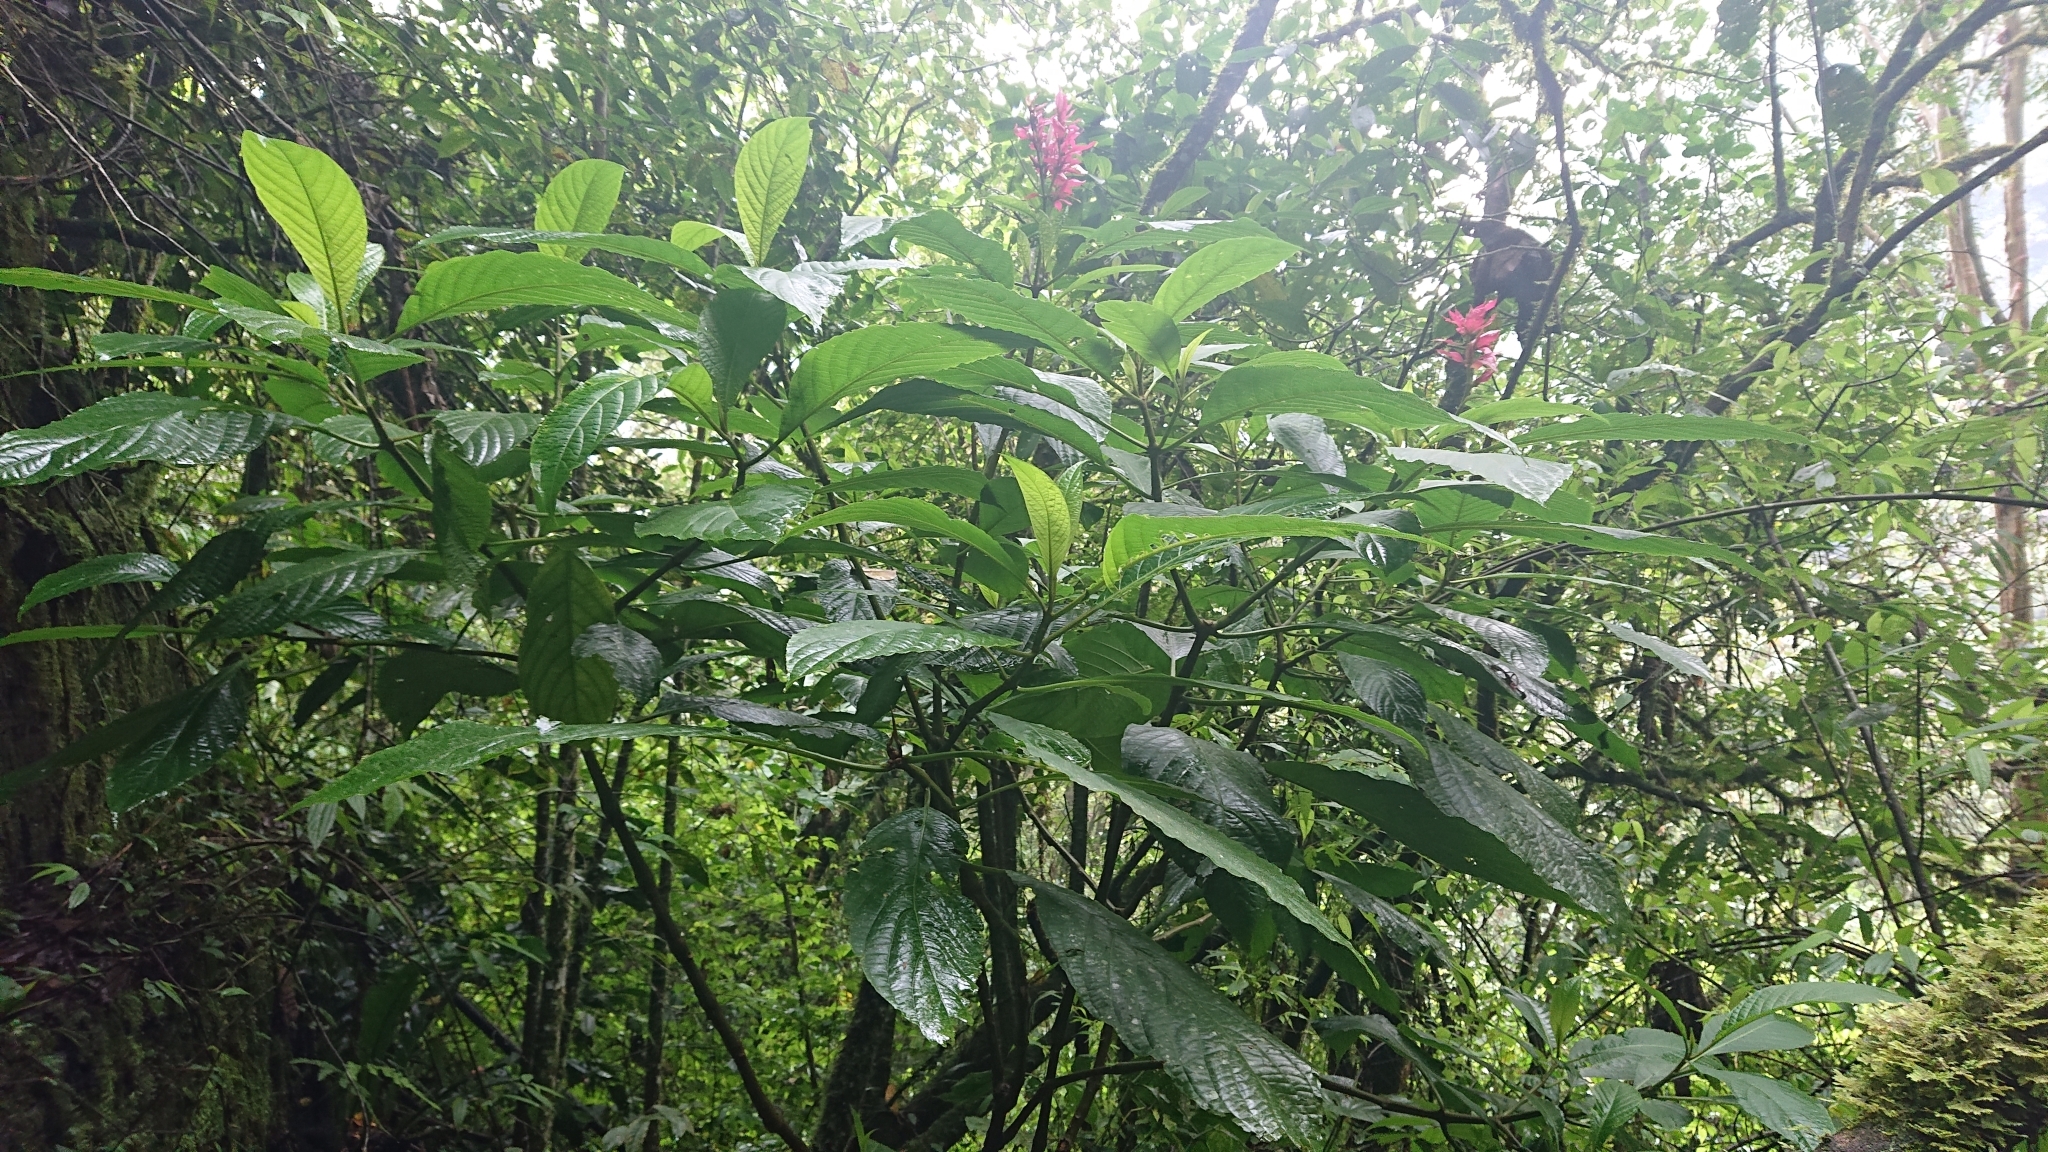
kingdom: Plantae
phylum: Tracheophyta
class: Magnoliopsida
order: Lamiales
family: Acanthaceae
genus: Megaskepasma
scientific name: Megaskepasma erythrochlamys
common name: Brazilian red-cloak
